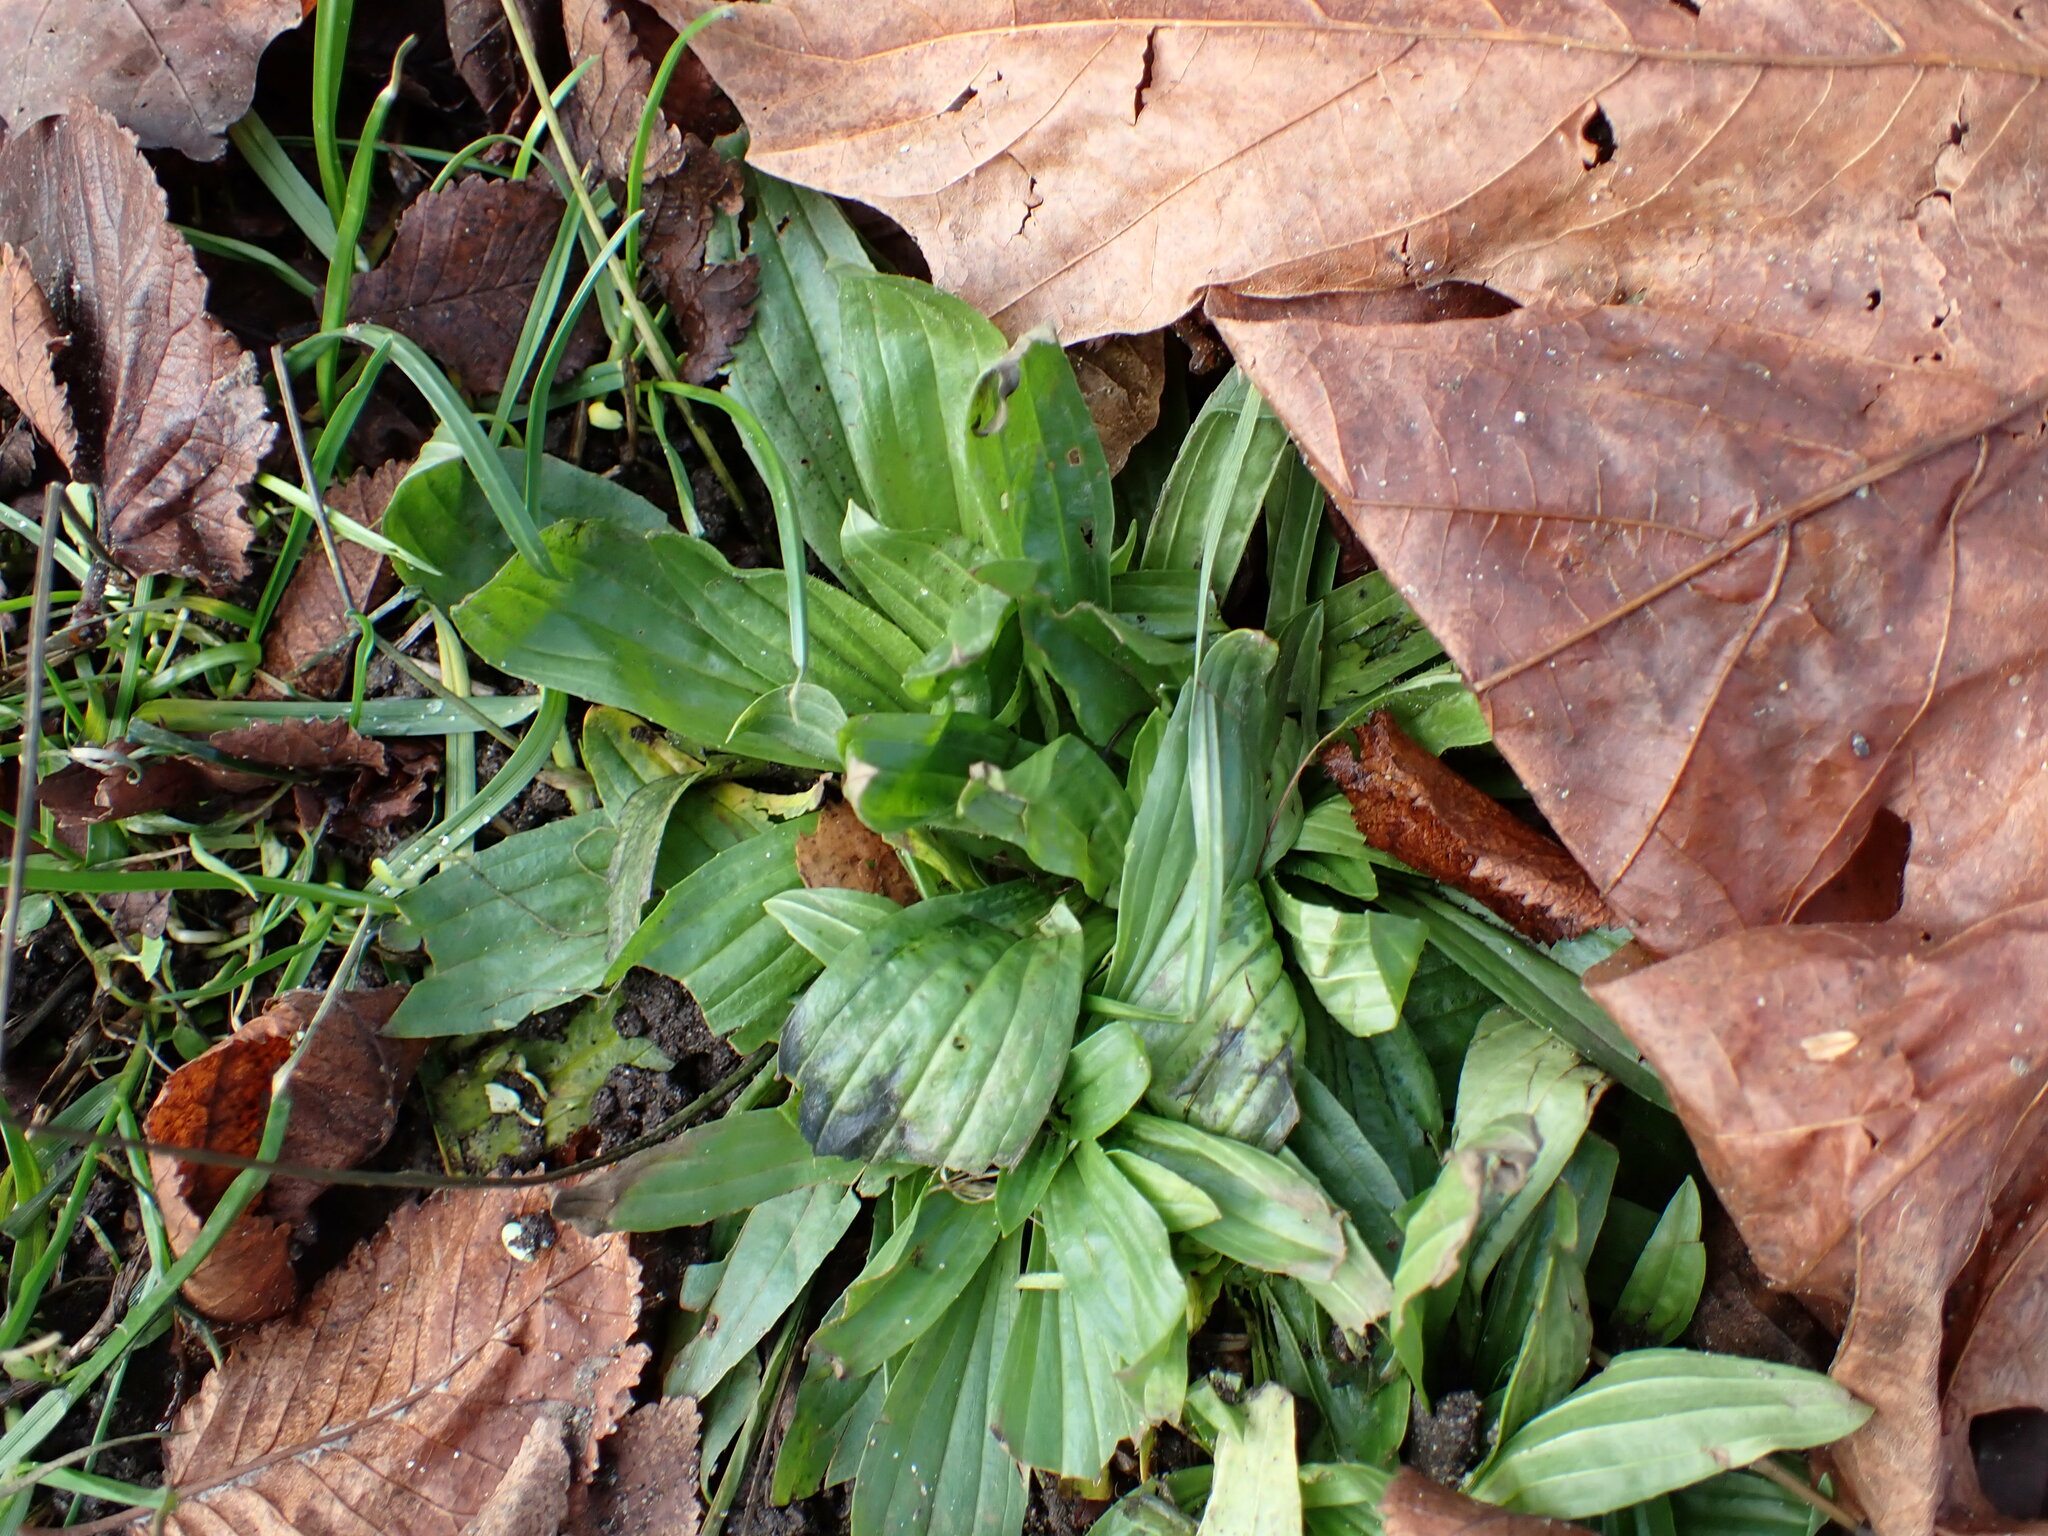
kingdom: Plantae
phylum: Tracheophyta
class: Magnoliopsida
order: Lamiales
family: Plantaginaceae
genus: Plantago
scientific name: Plantago lanceolata
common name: Ribwort plantain
